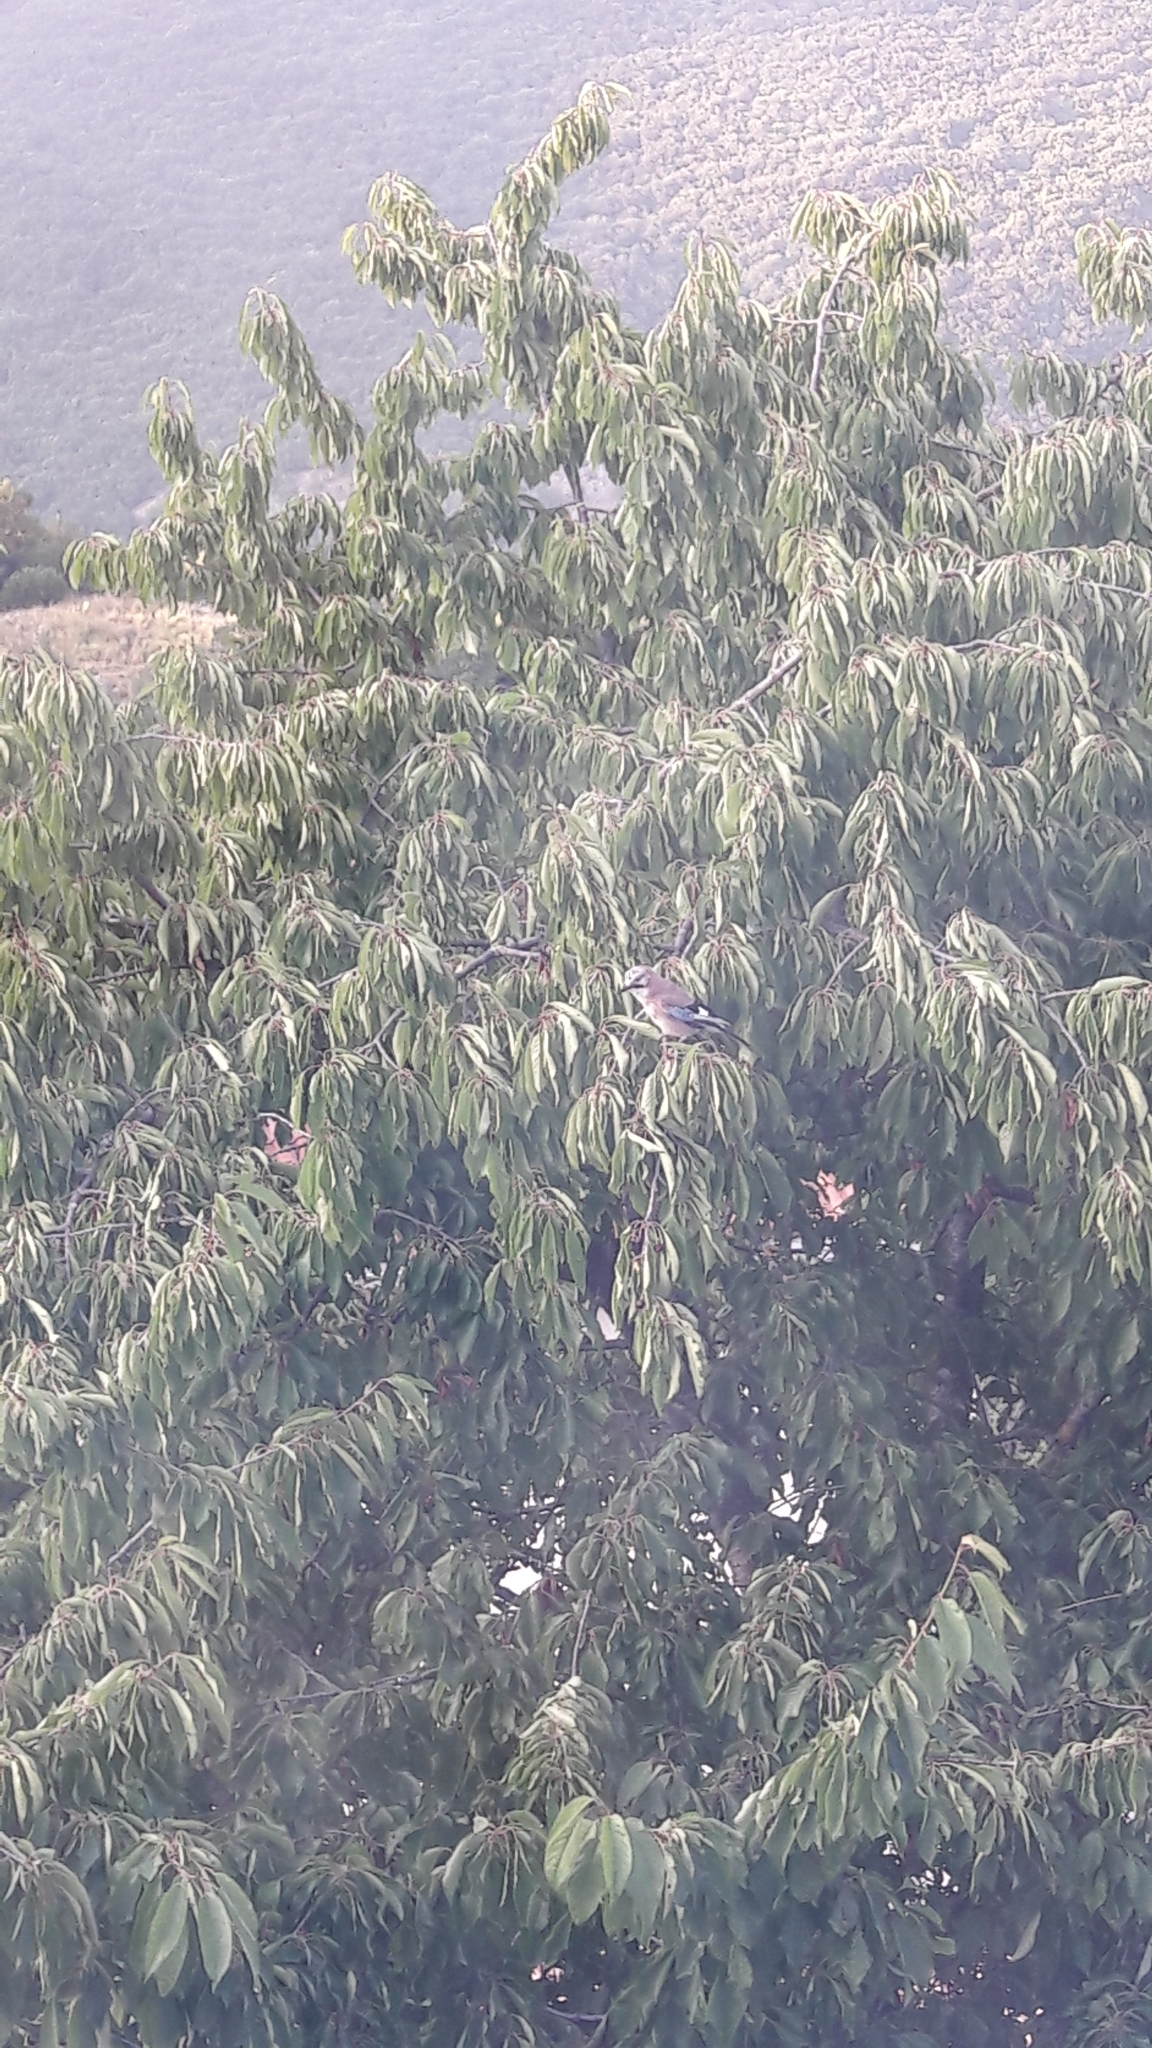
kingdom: Animalia
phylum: Chordata
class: Aves
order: Passeriformes
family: Corvidae
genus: Garrulus
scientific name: Garrulus glandarius
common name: Eurasian jay
